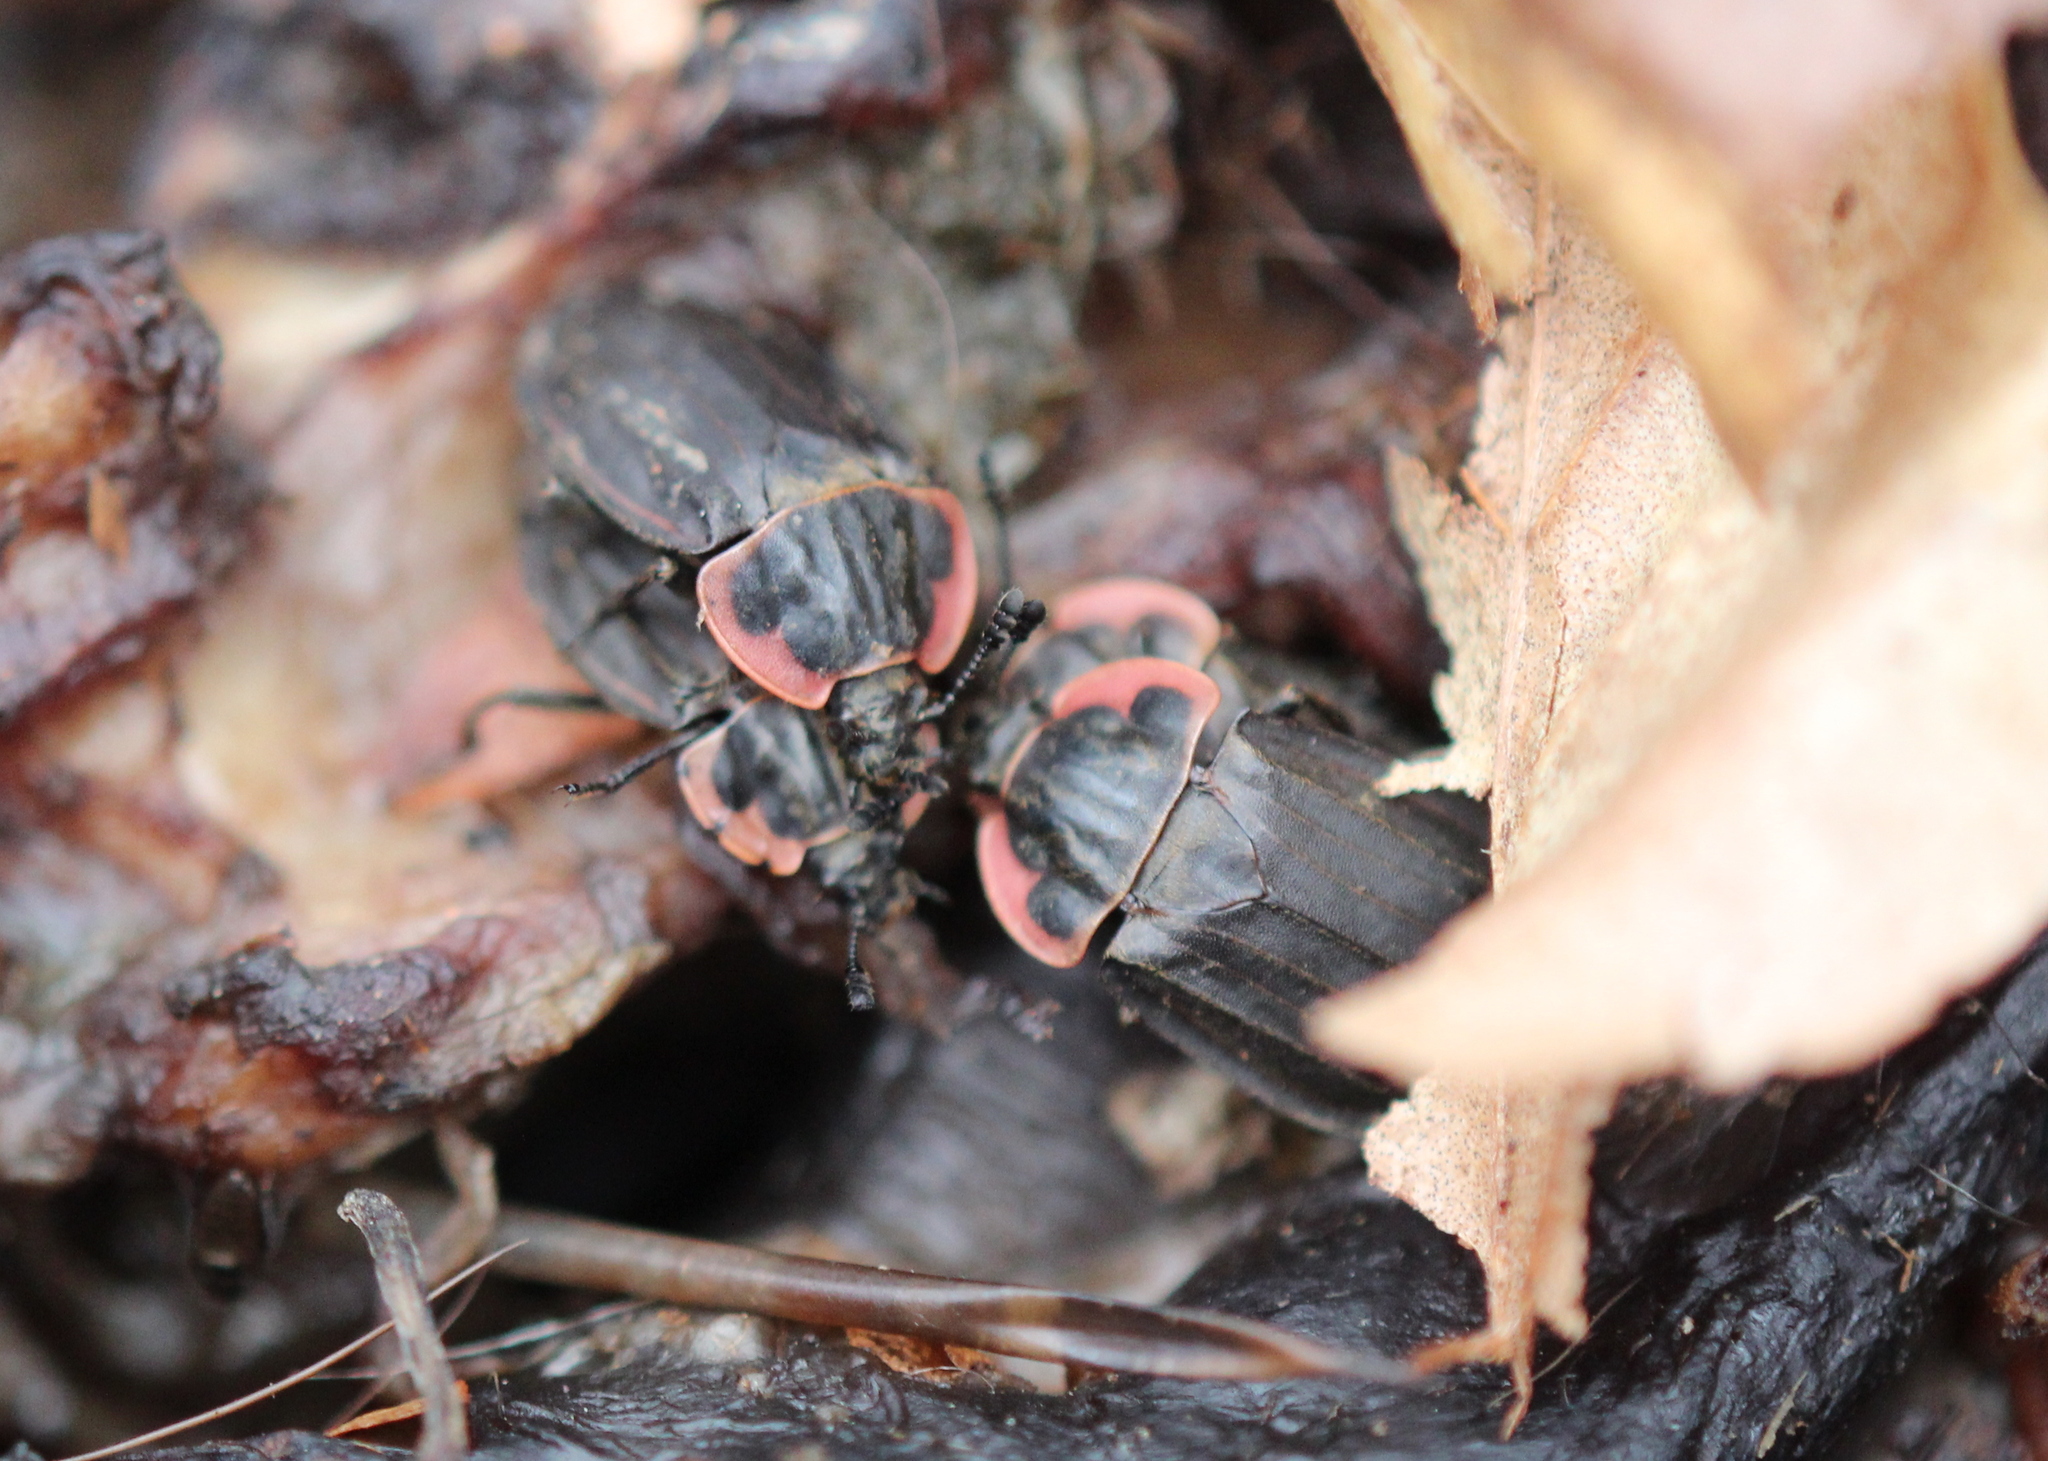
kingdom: Animalia
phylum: Arthropoda
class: Insecta
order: Coleoptera
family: Staphylinidae
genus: Oiceoptoma
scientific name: Oiceoptoma noveboracense
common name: Margined carrion beetle
